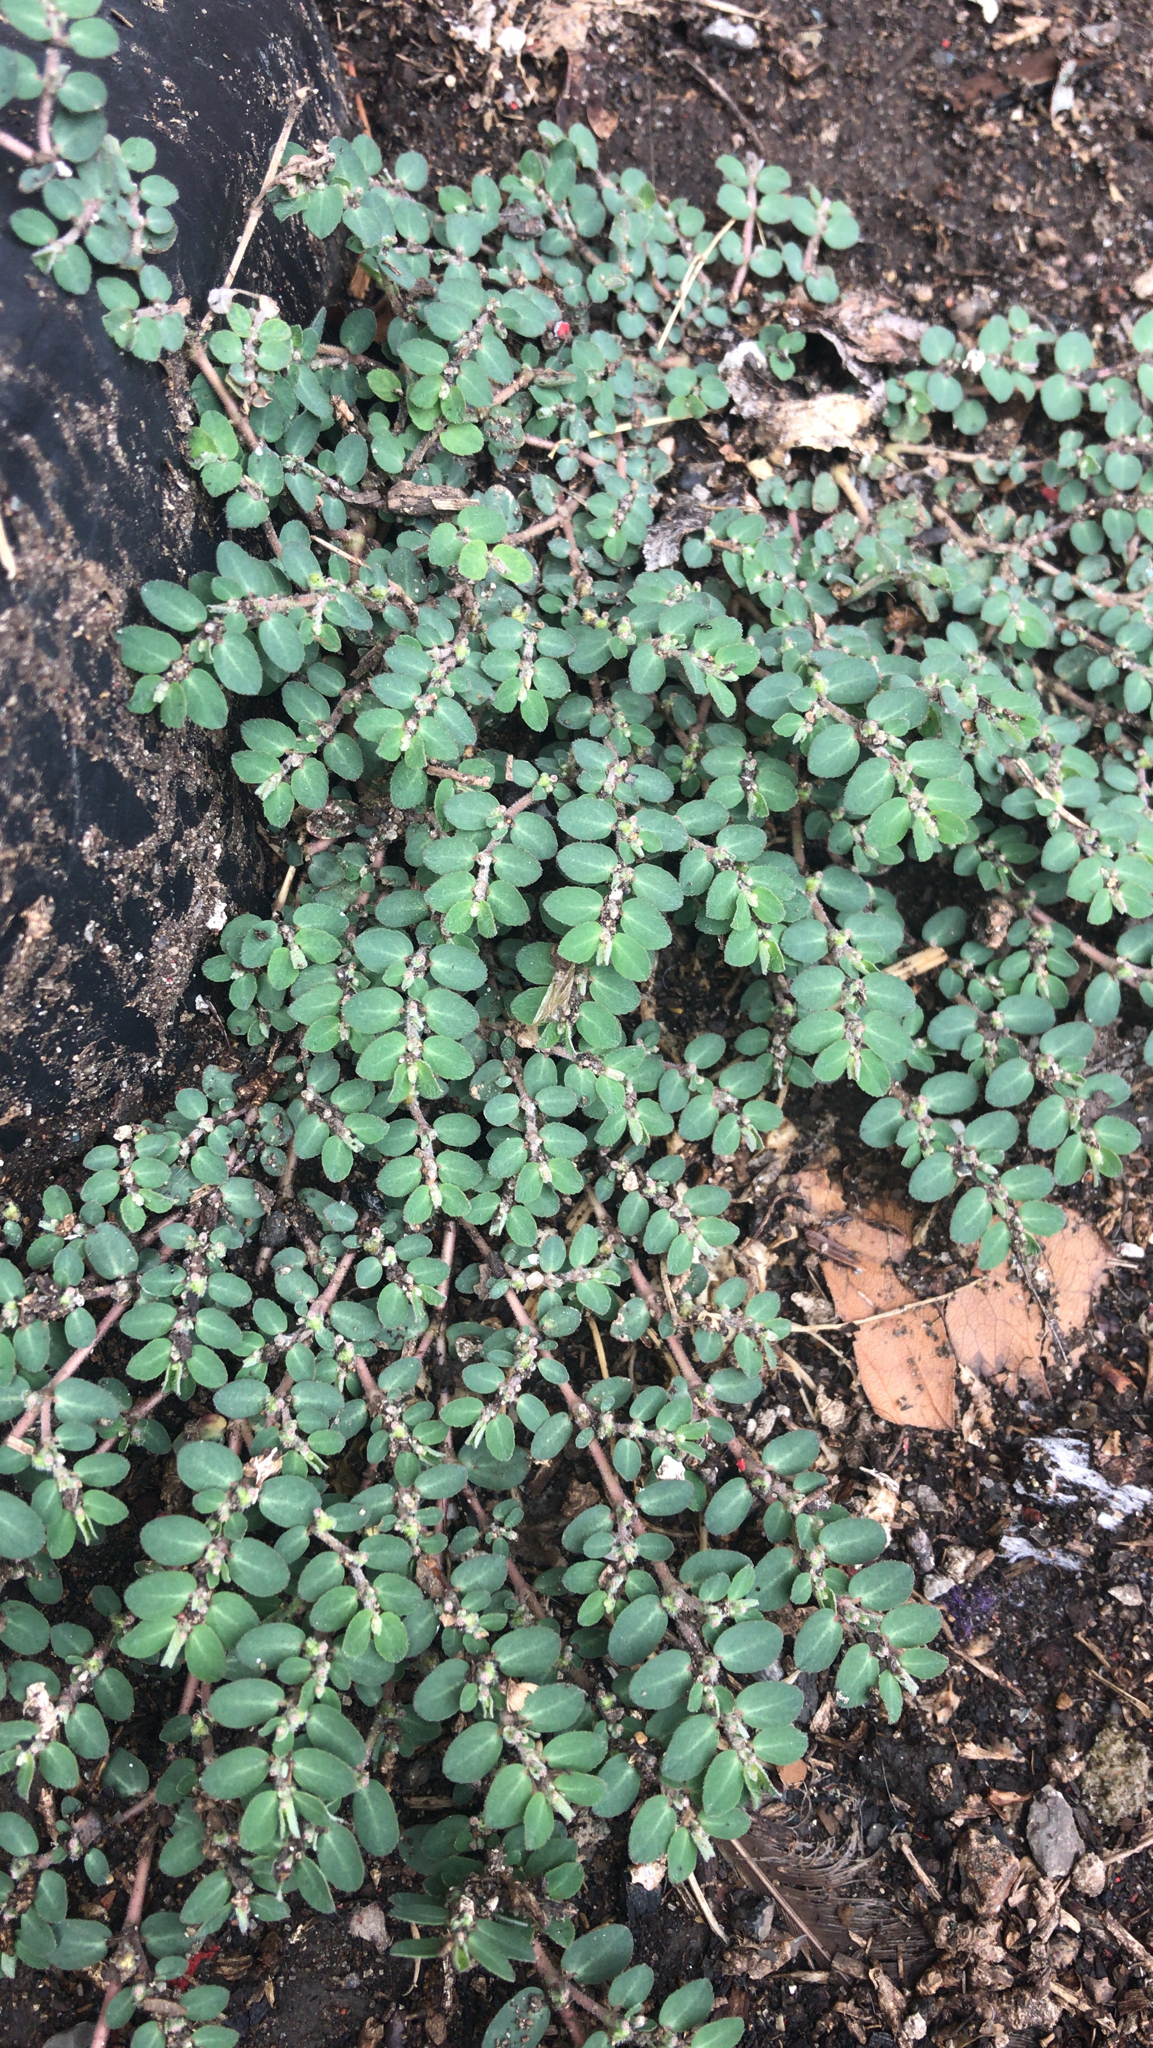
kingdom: Plantae
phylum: Tracheophyta
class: Magnoliopsida
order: Malpighiales
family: Euphorbiaceae
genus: Euphorbia
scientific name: Euphorbia prostrata
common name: Prostrate sandmat
